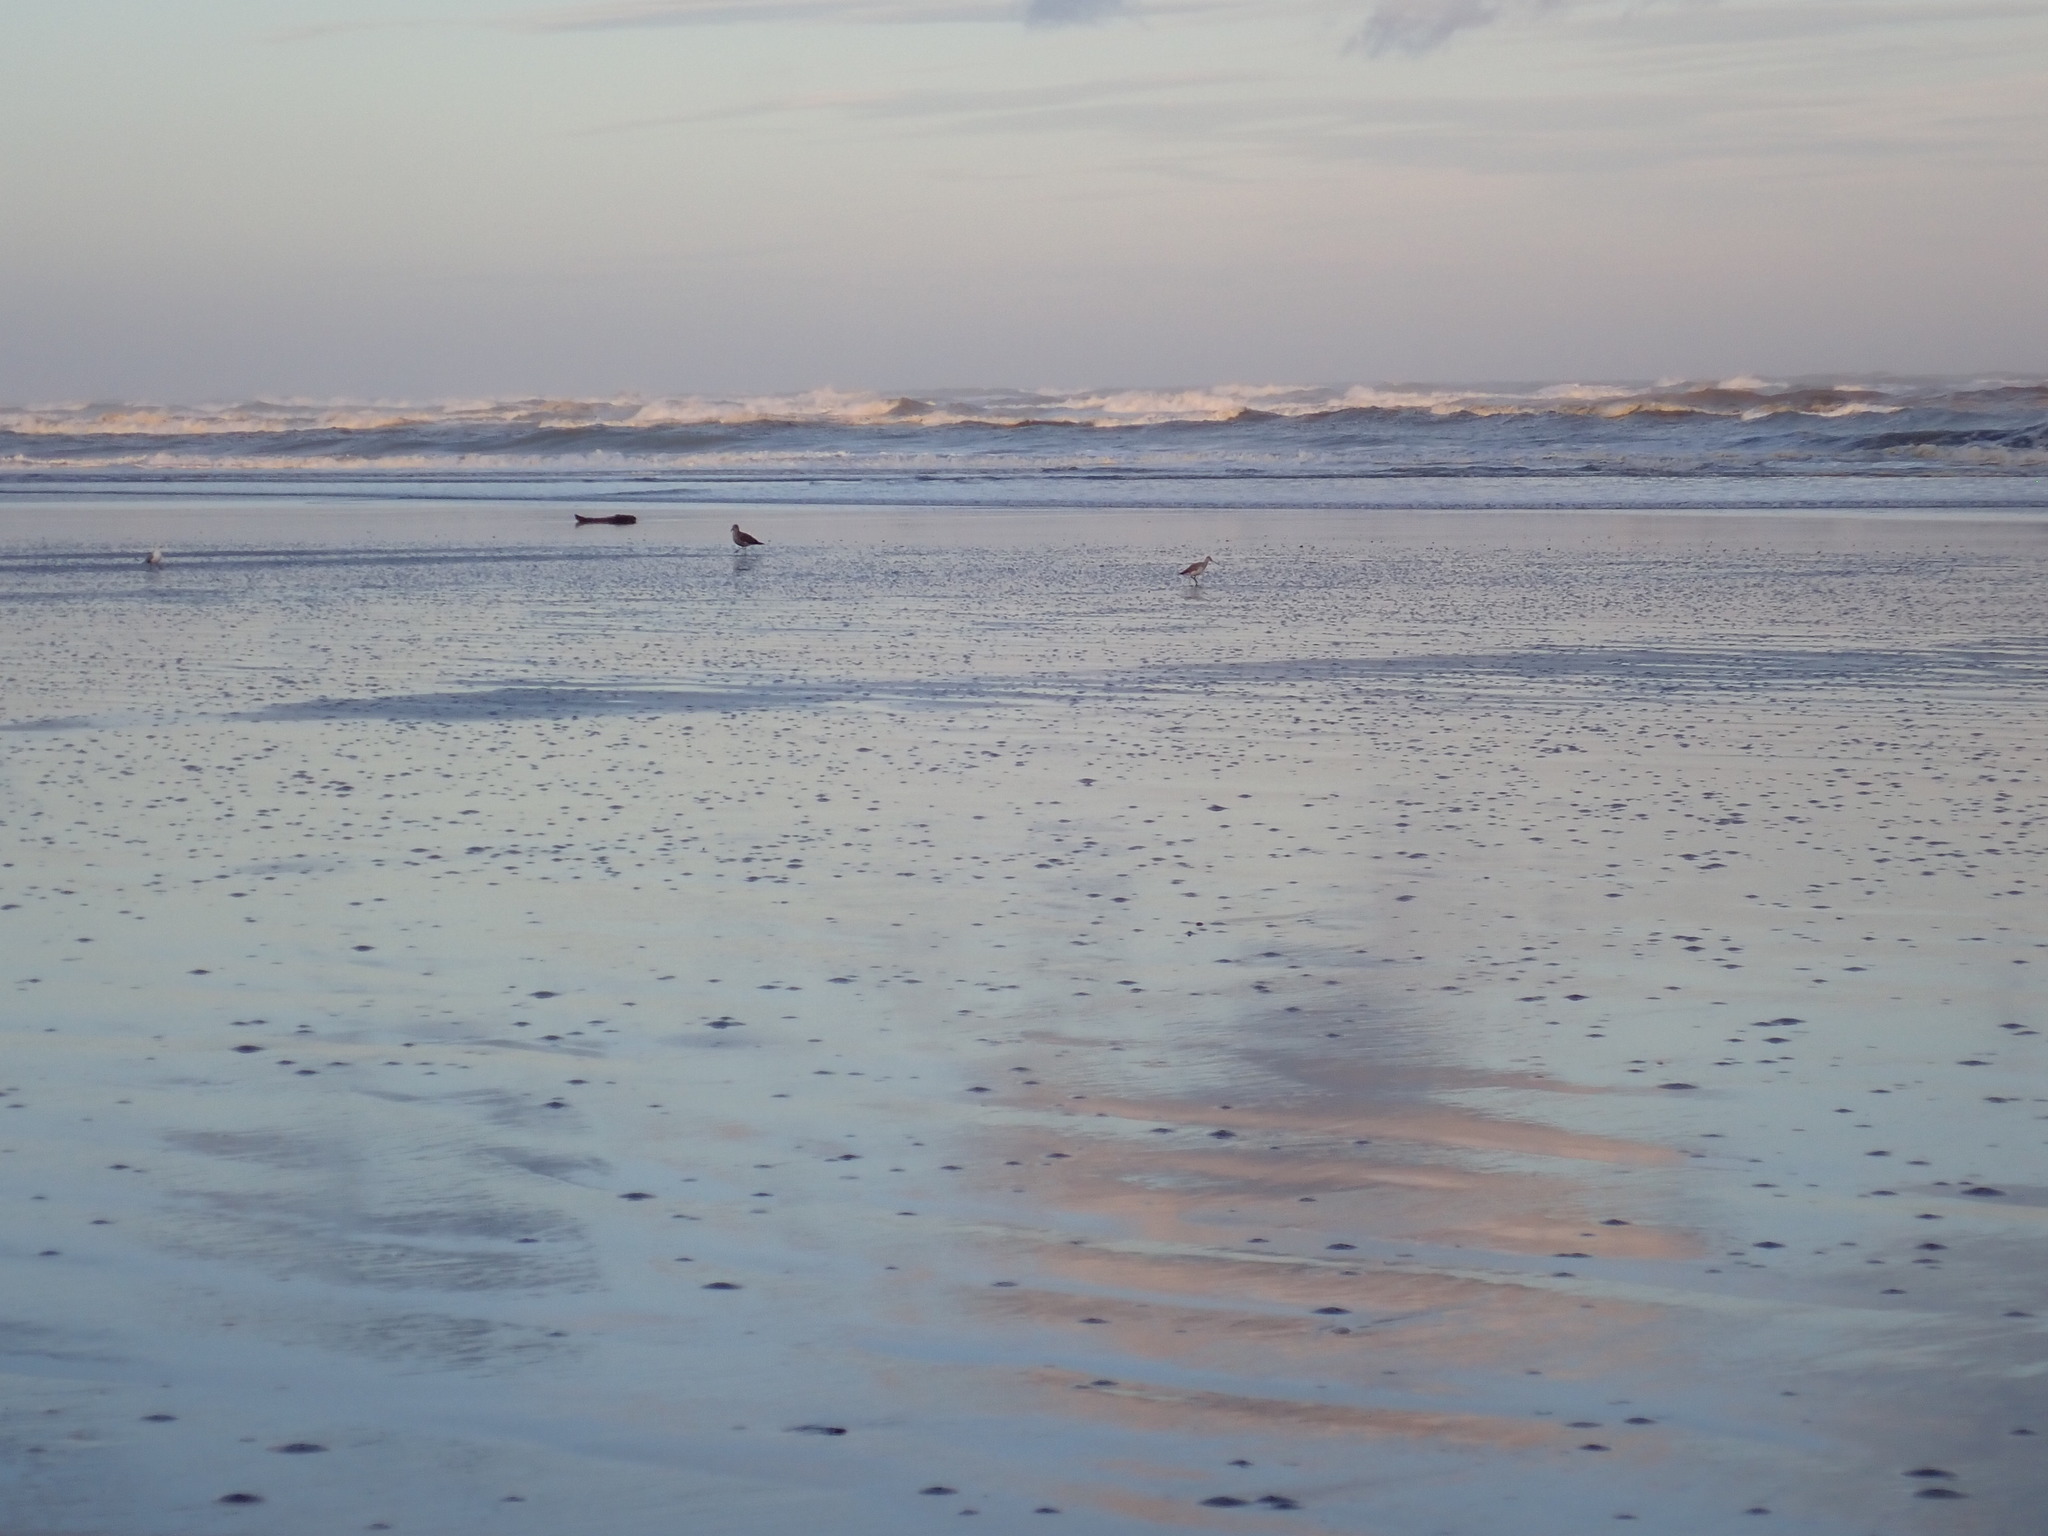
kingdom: Animalia
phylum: Chordata
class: Aves
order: Charadriiformes
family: Scolopacidae
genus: Limosa
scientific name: Limosa lapponica
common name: Bar-tailed godwit
